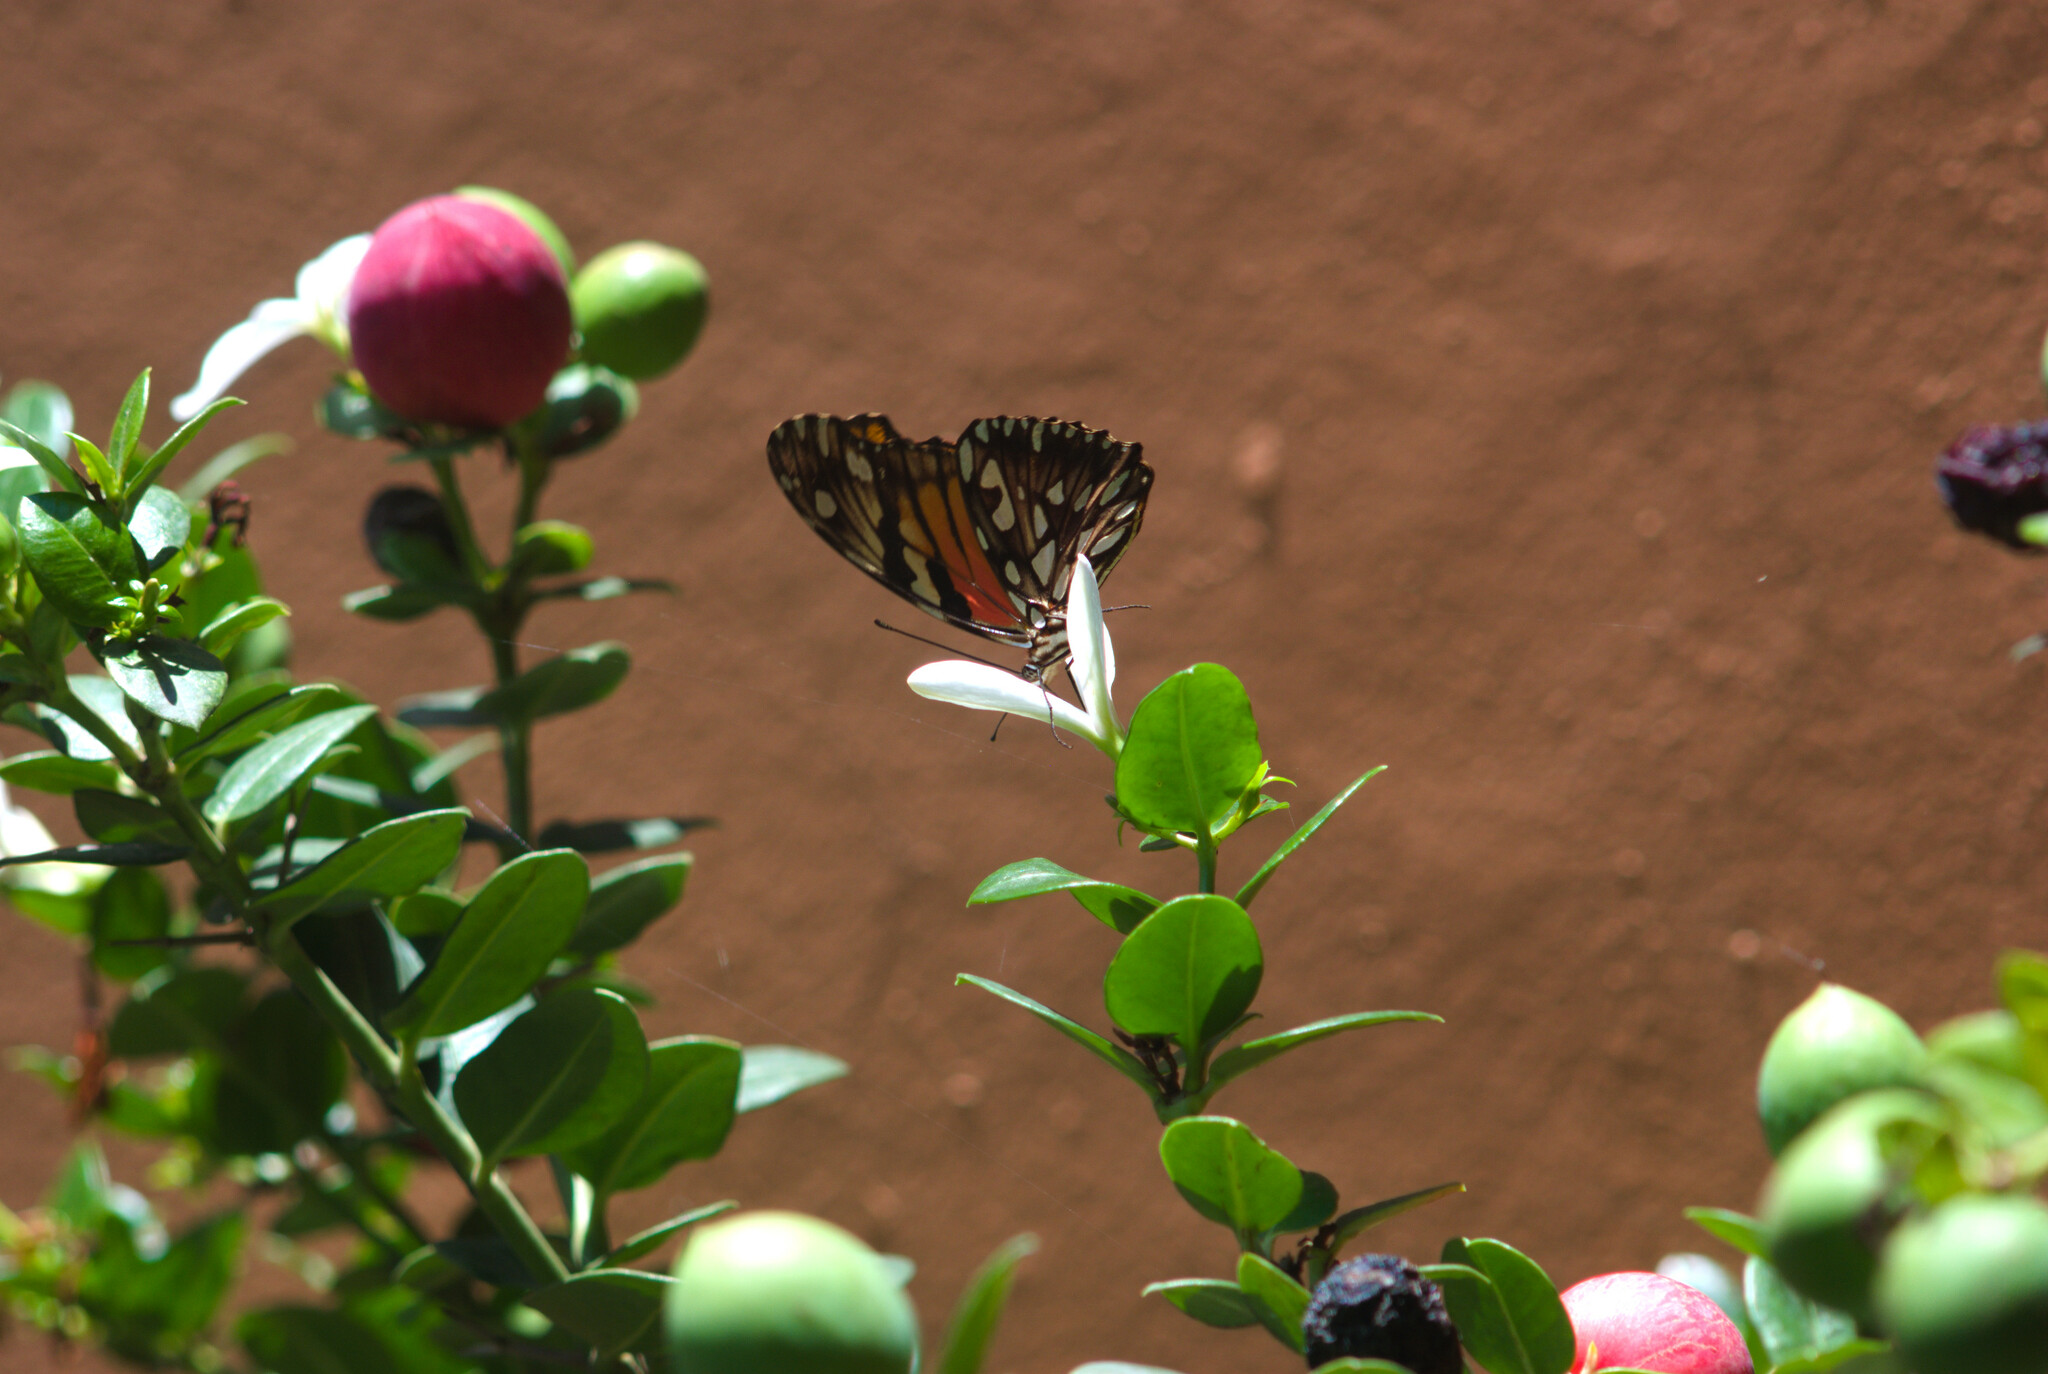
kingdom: Animalia
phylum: Arthropoda
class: Insecta
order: Lepidoptera
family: Nymphalidae
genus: Dione
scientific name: Dione juno
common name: Juno silverspot
